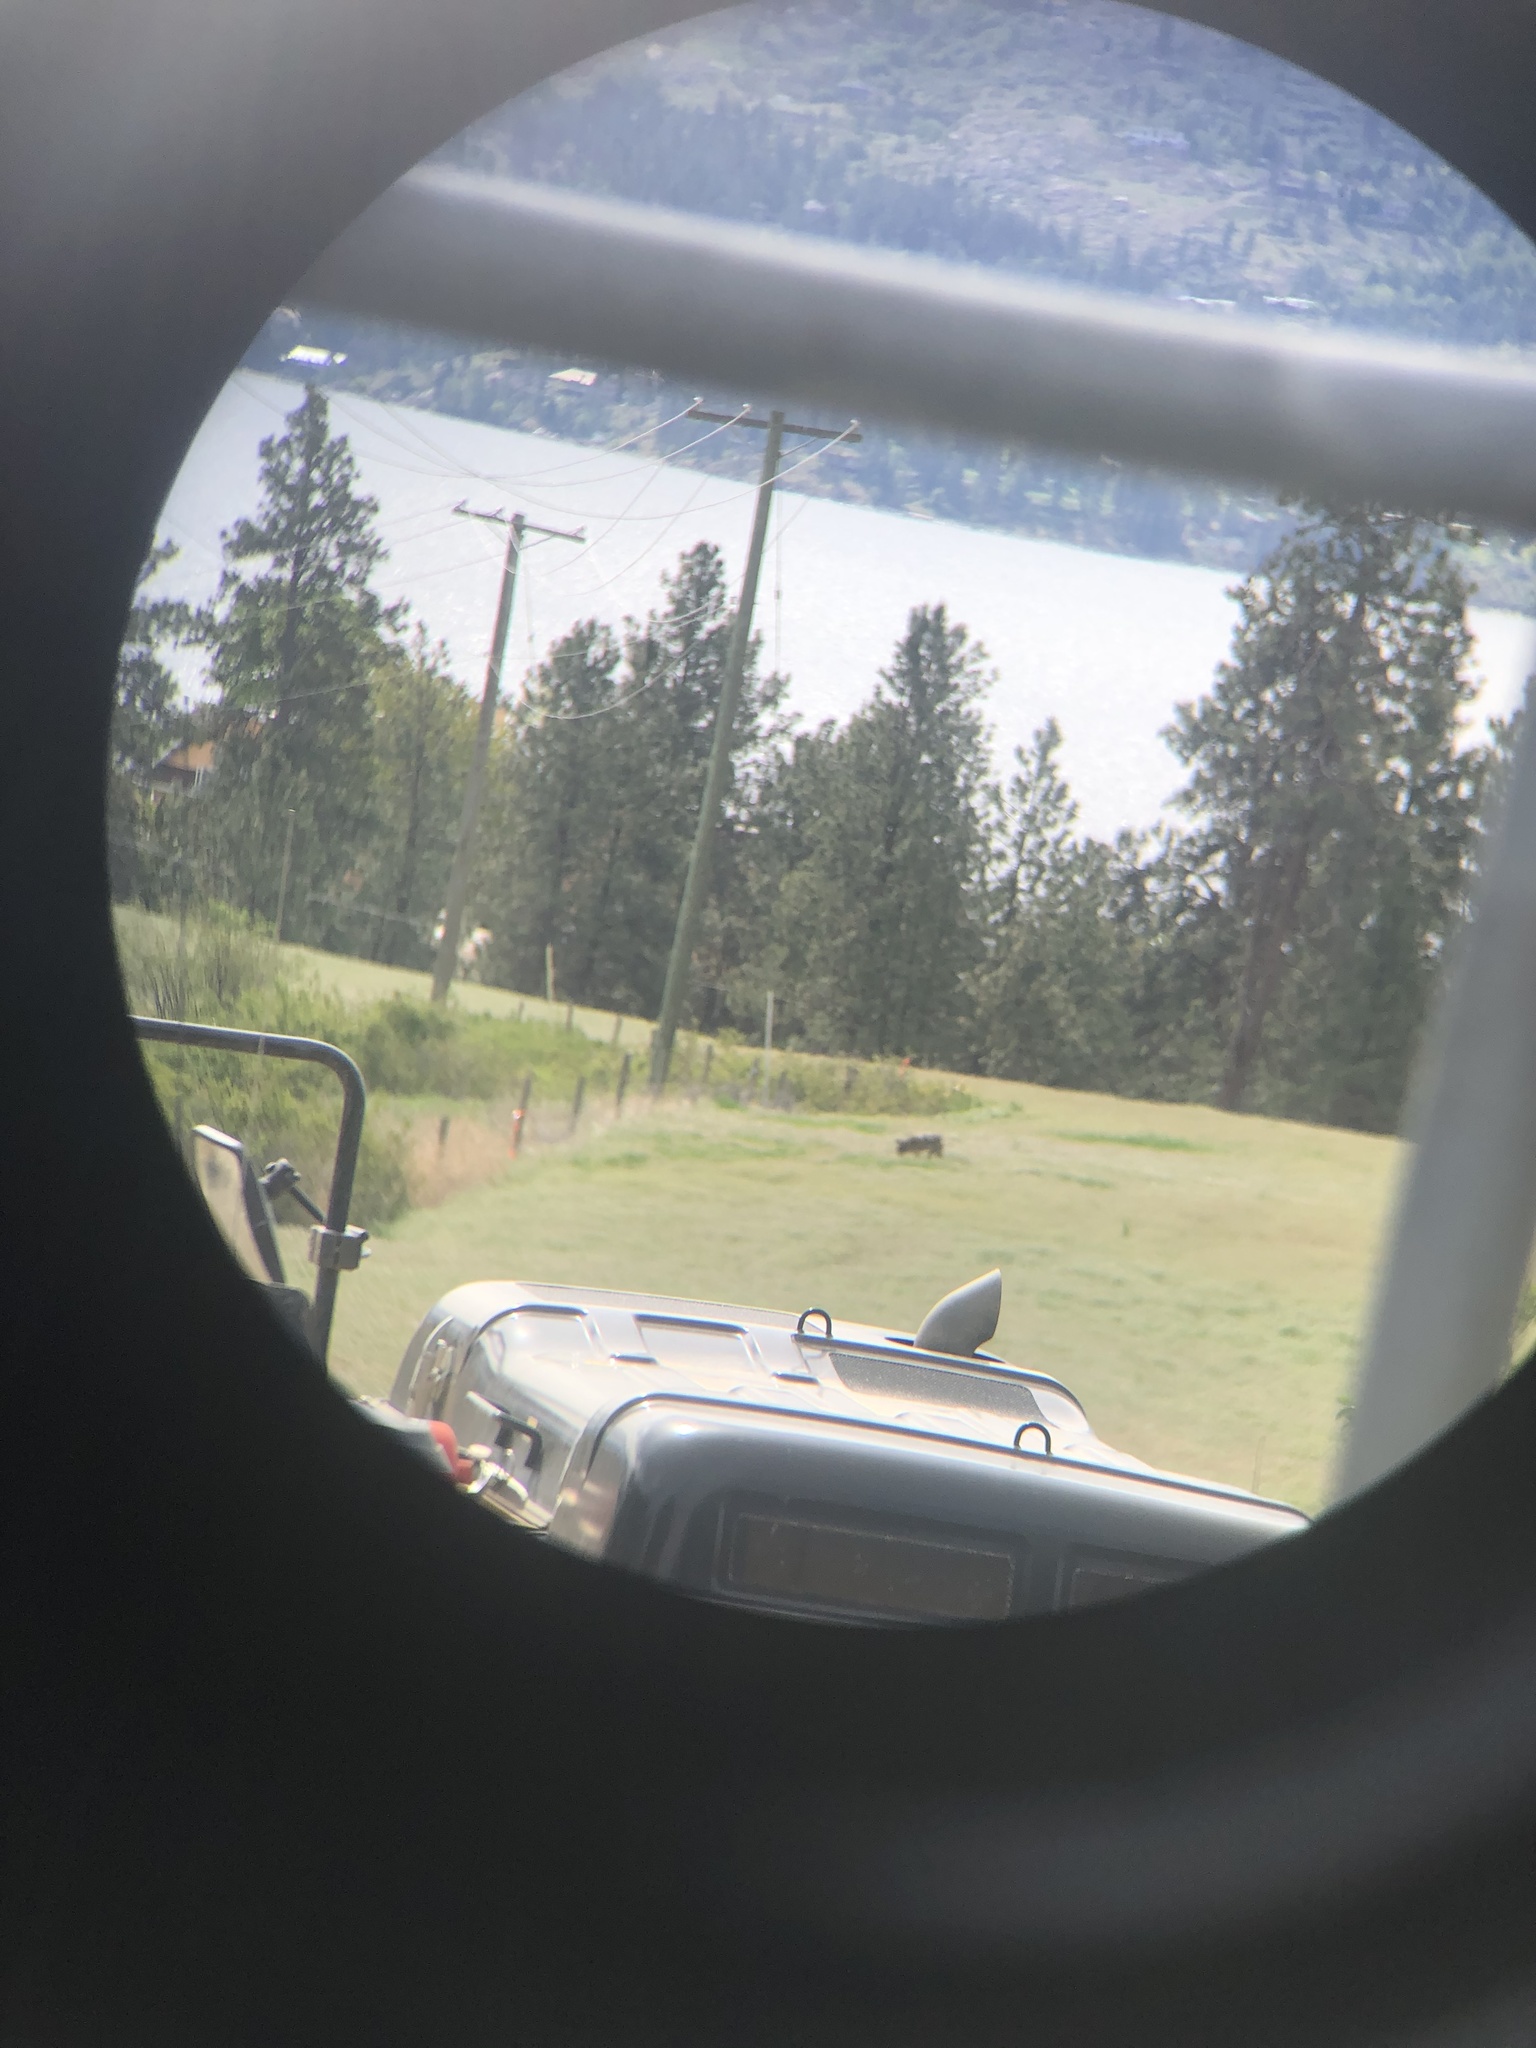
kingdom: Animalia
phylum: Chordata
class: Mammalia
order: Carnivora
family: Canidae
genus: Canis
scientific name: Canis latrans
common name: Coyote
